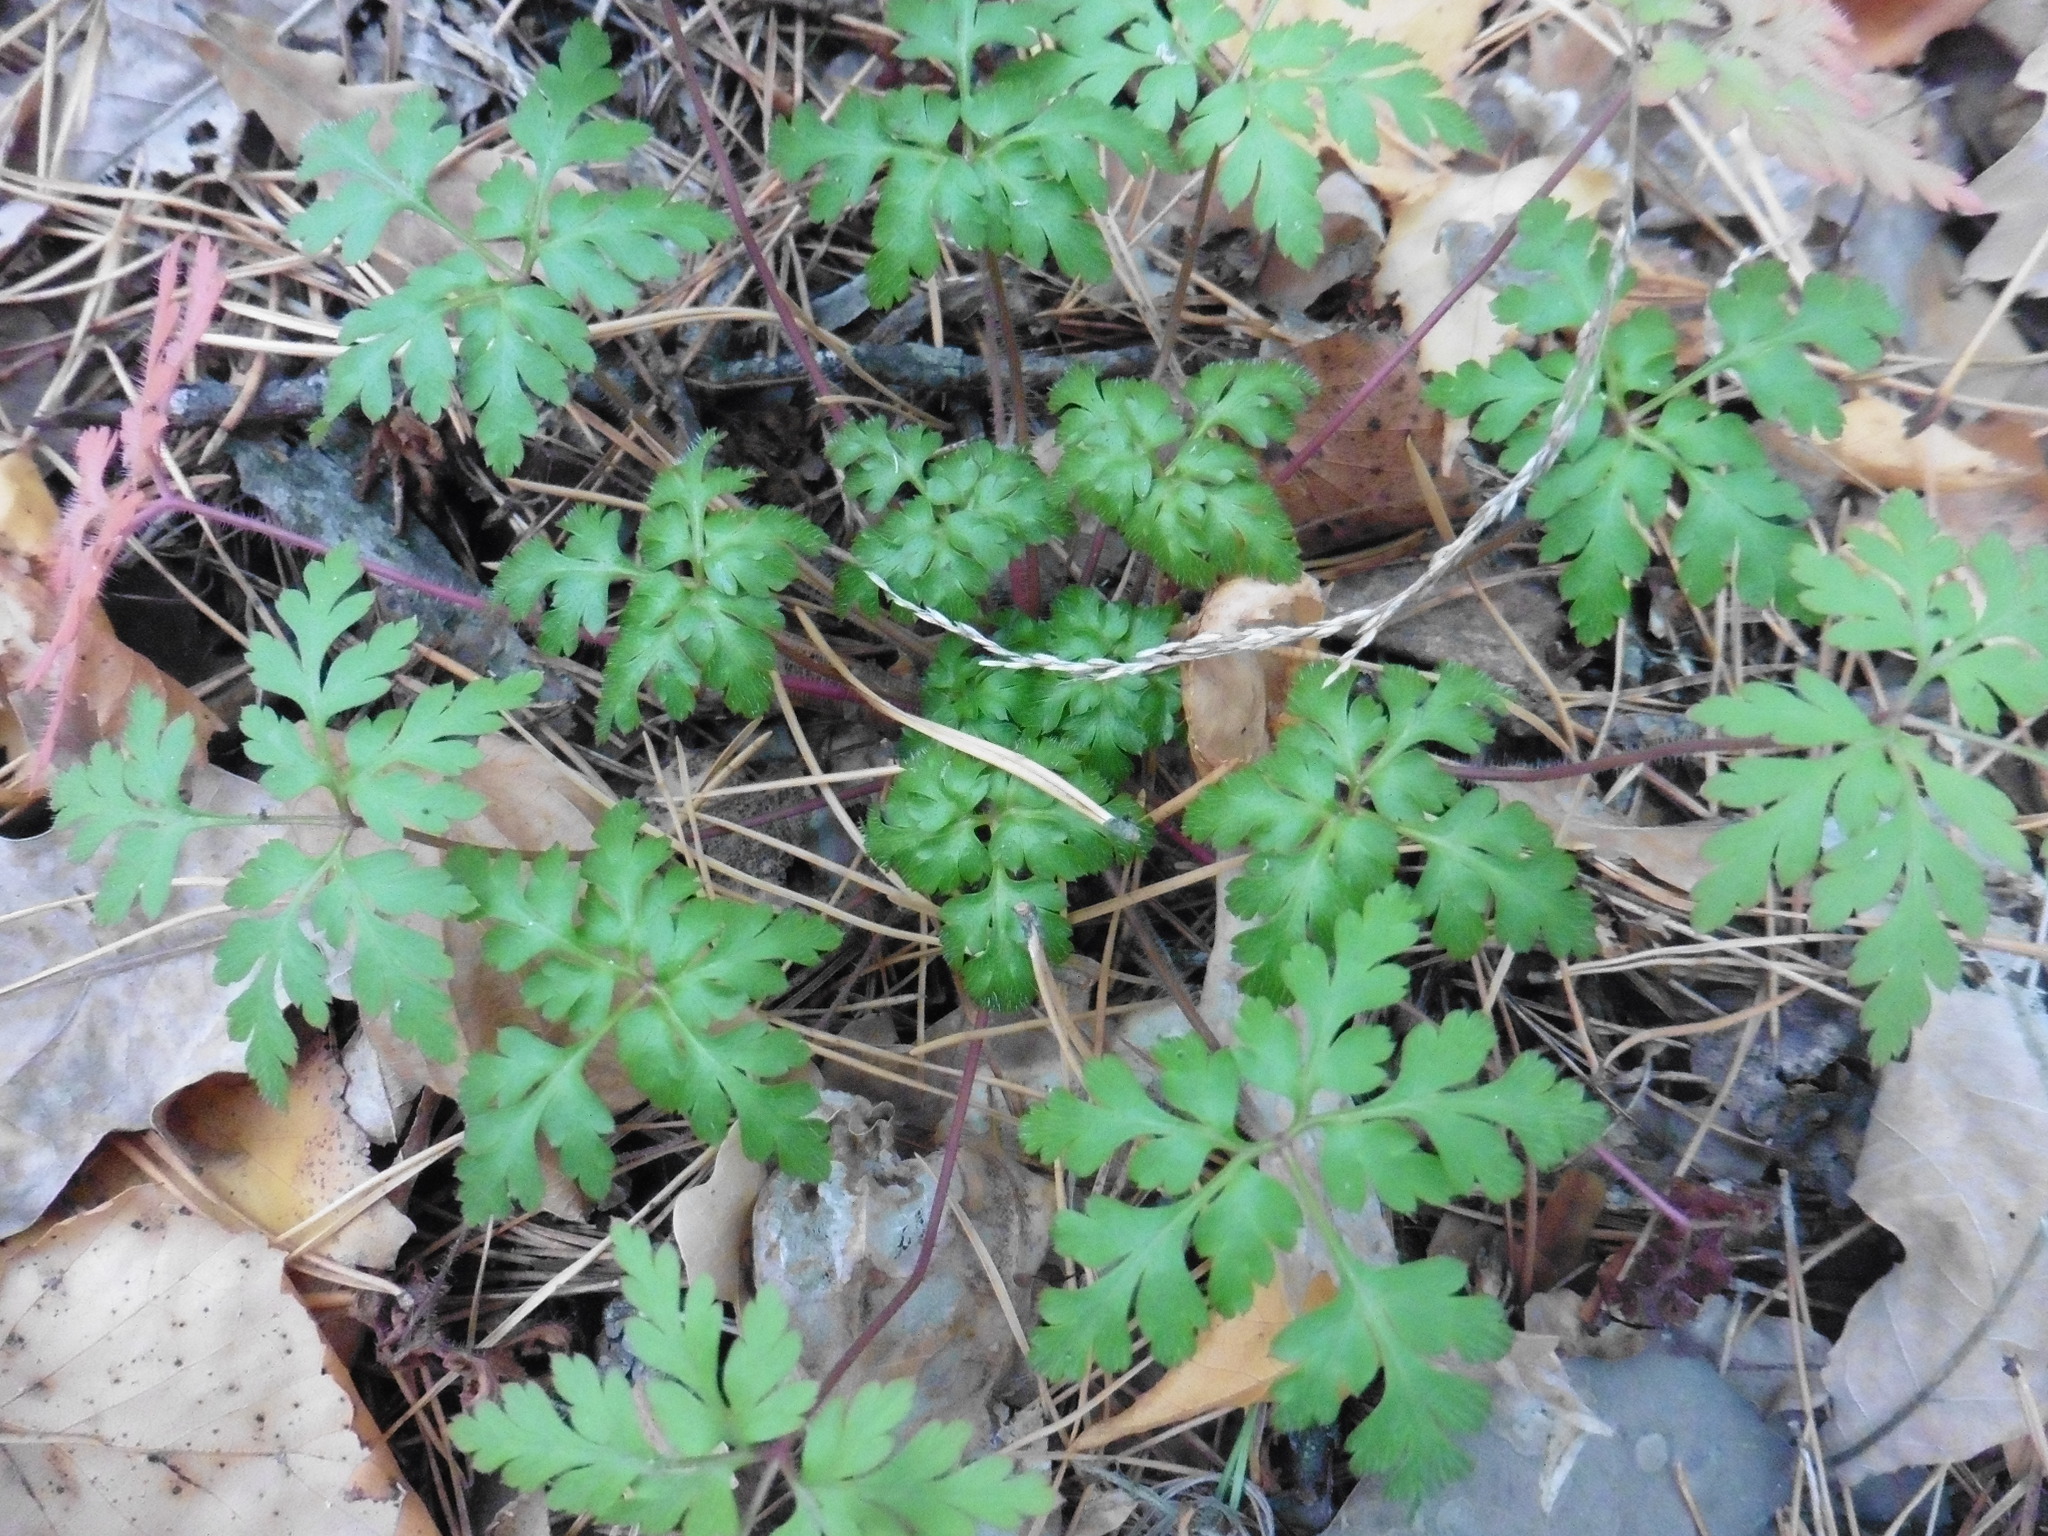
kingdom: Plantae
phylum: Tracheophyta
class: Magnoliopsida
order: Geraniales
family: Geraniaceae
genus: Geranium
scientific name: Geranium robertianum
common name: Herb-robert
